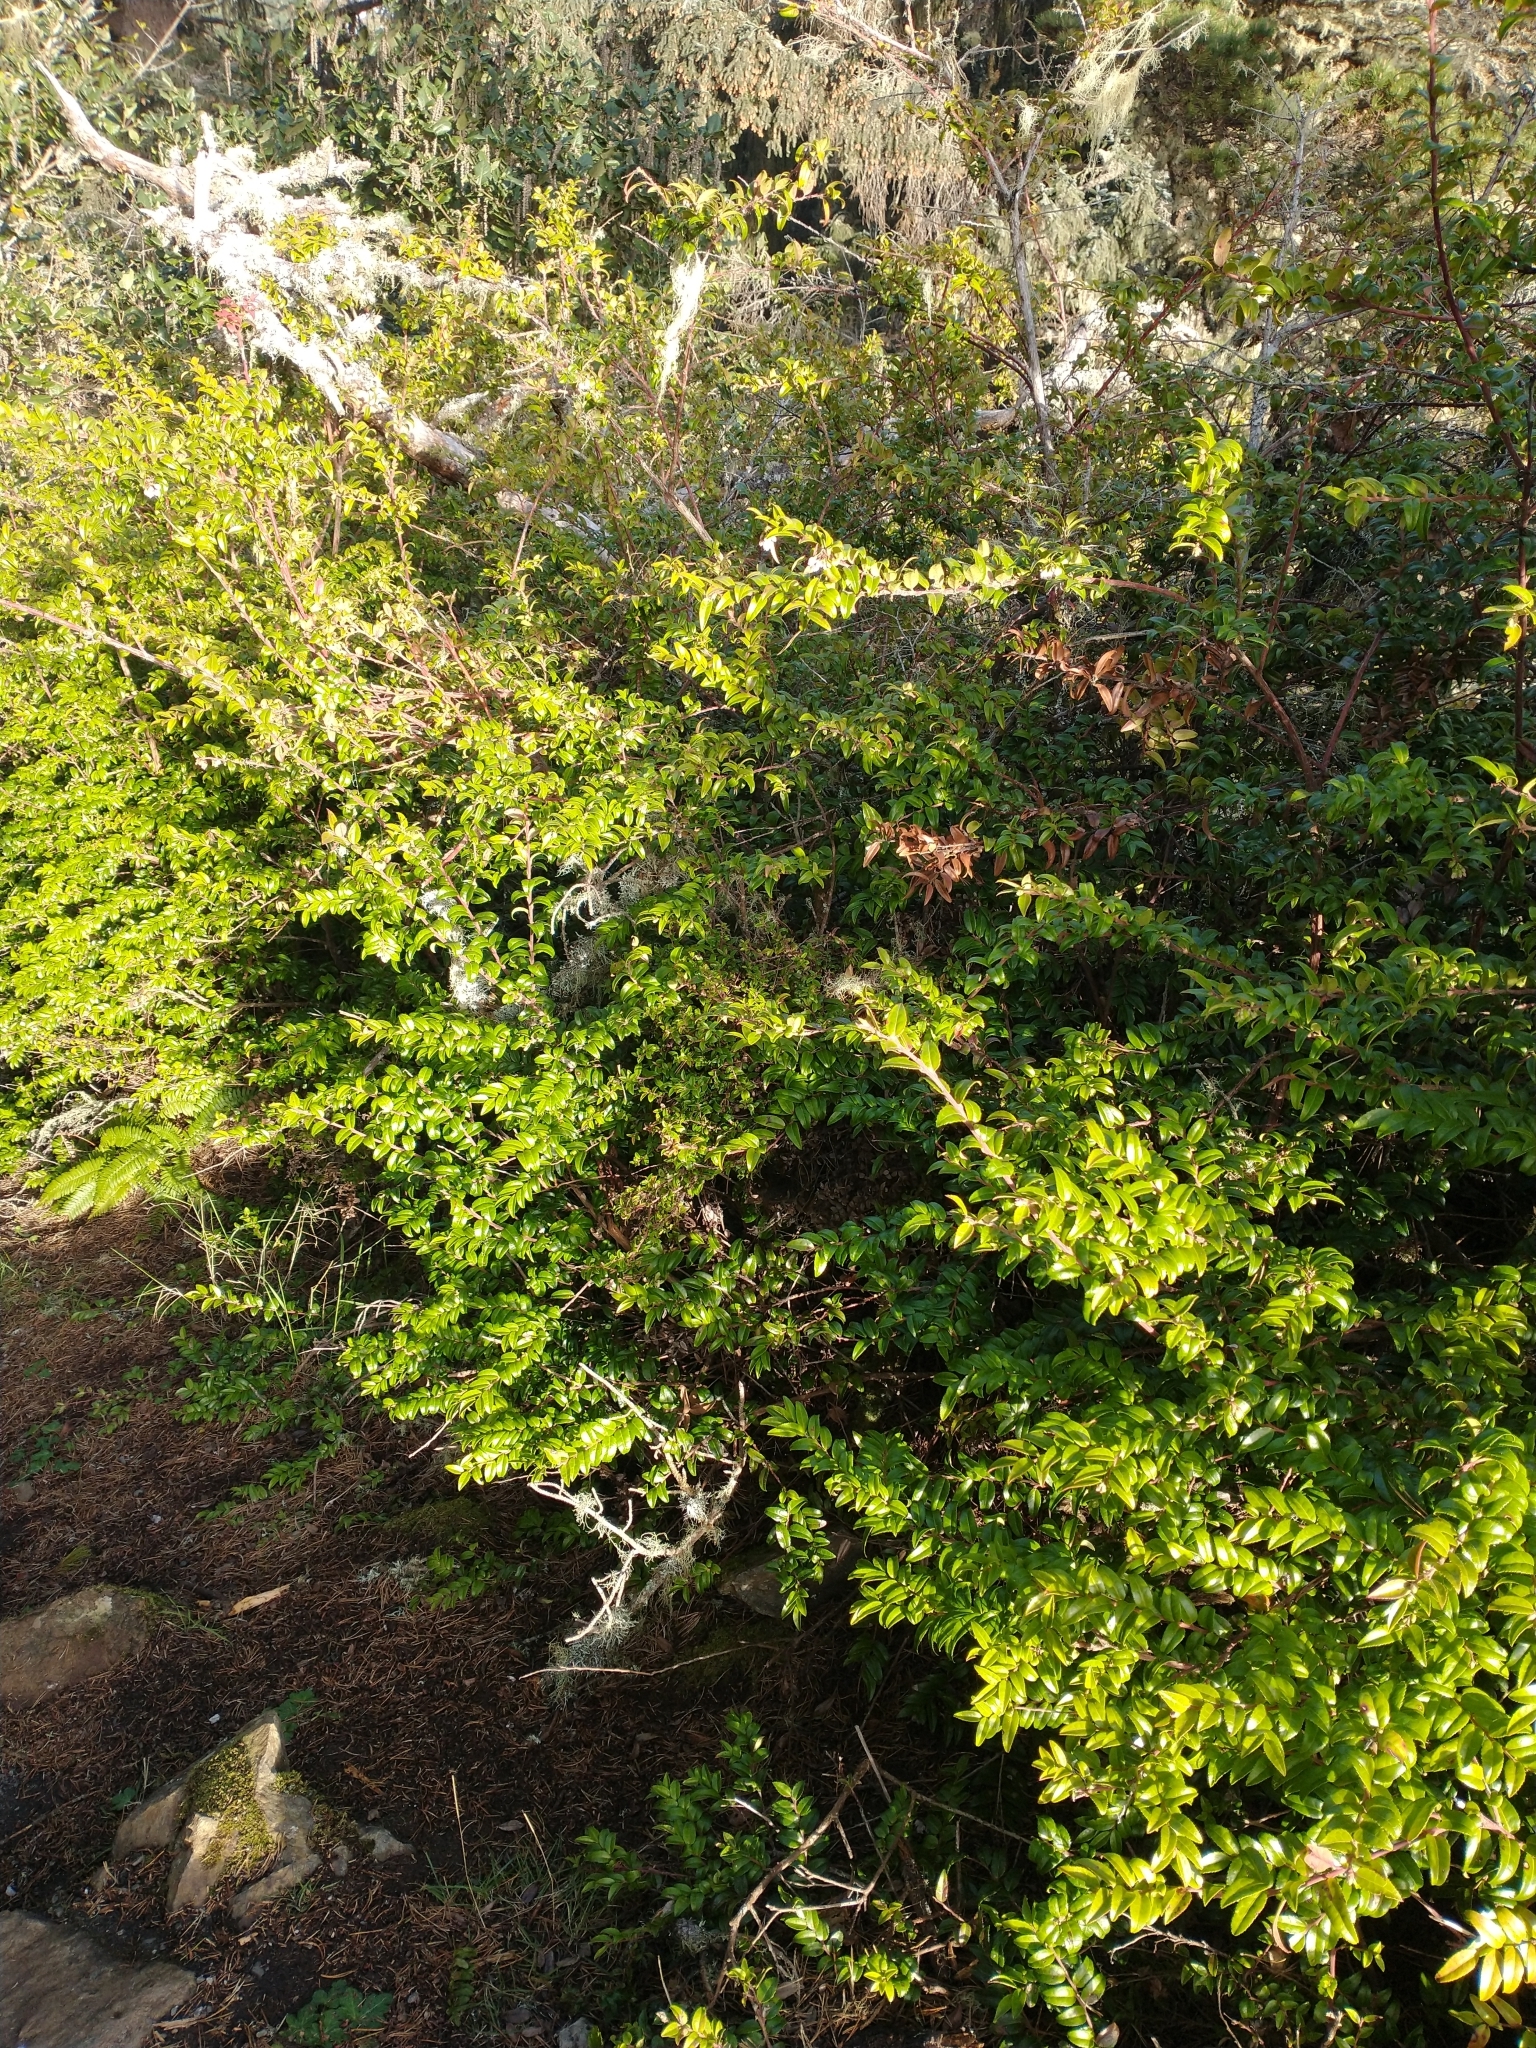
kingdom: Plantae
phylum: Tracheophyta
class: Magnoliopsida
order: Ericales
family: Ericaceae
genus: Vaccinium
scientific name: Vaccinium ovatum
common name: California-huckleberry
